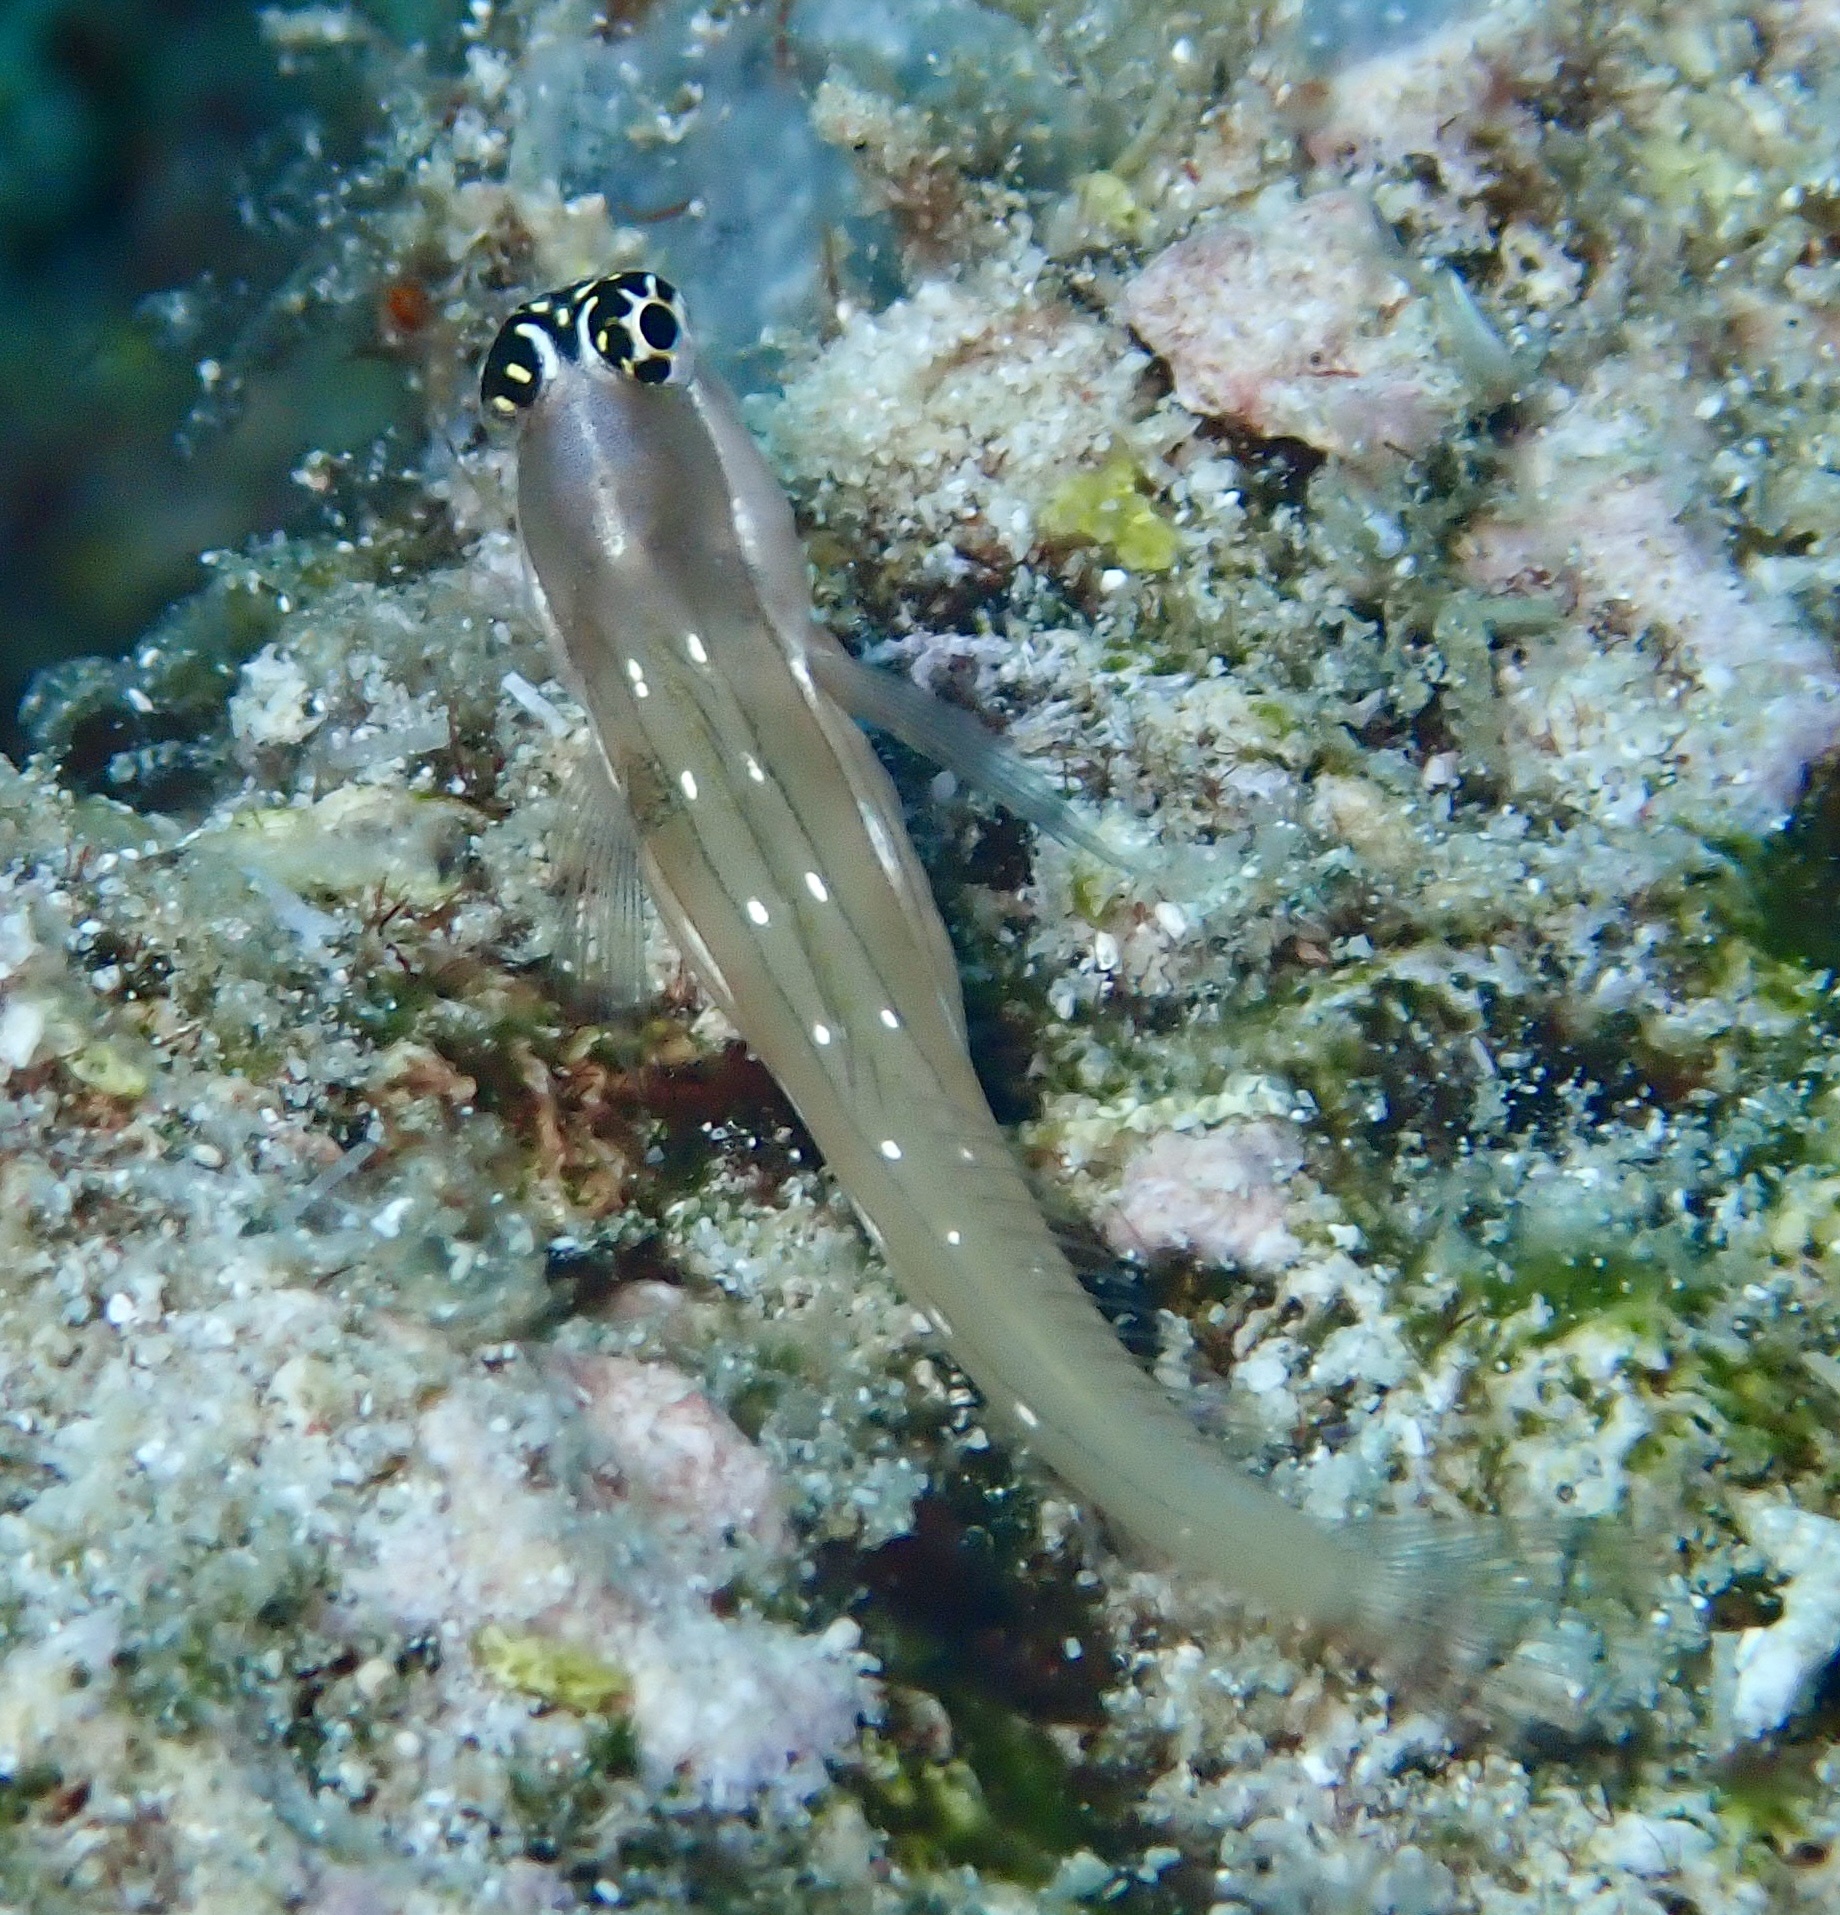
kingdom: Animalia
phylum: Chordata
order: Perciformes
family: Blenniidae
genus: Ecsenius
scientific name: Ecsenius schroederi
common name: Schroeder's combtooth-blenny
